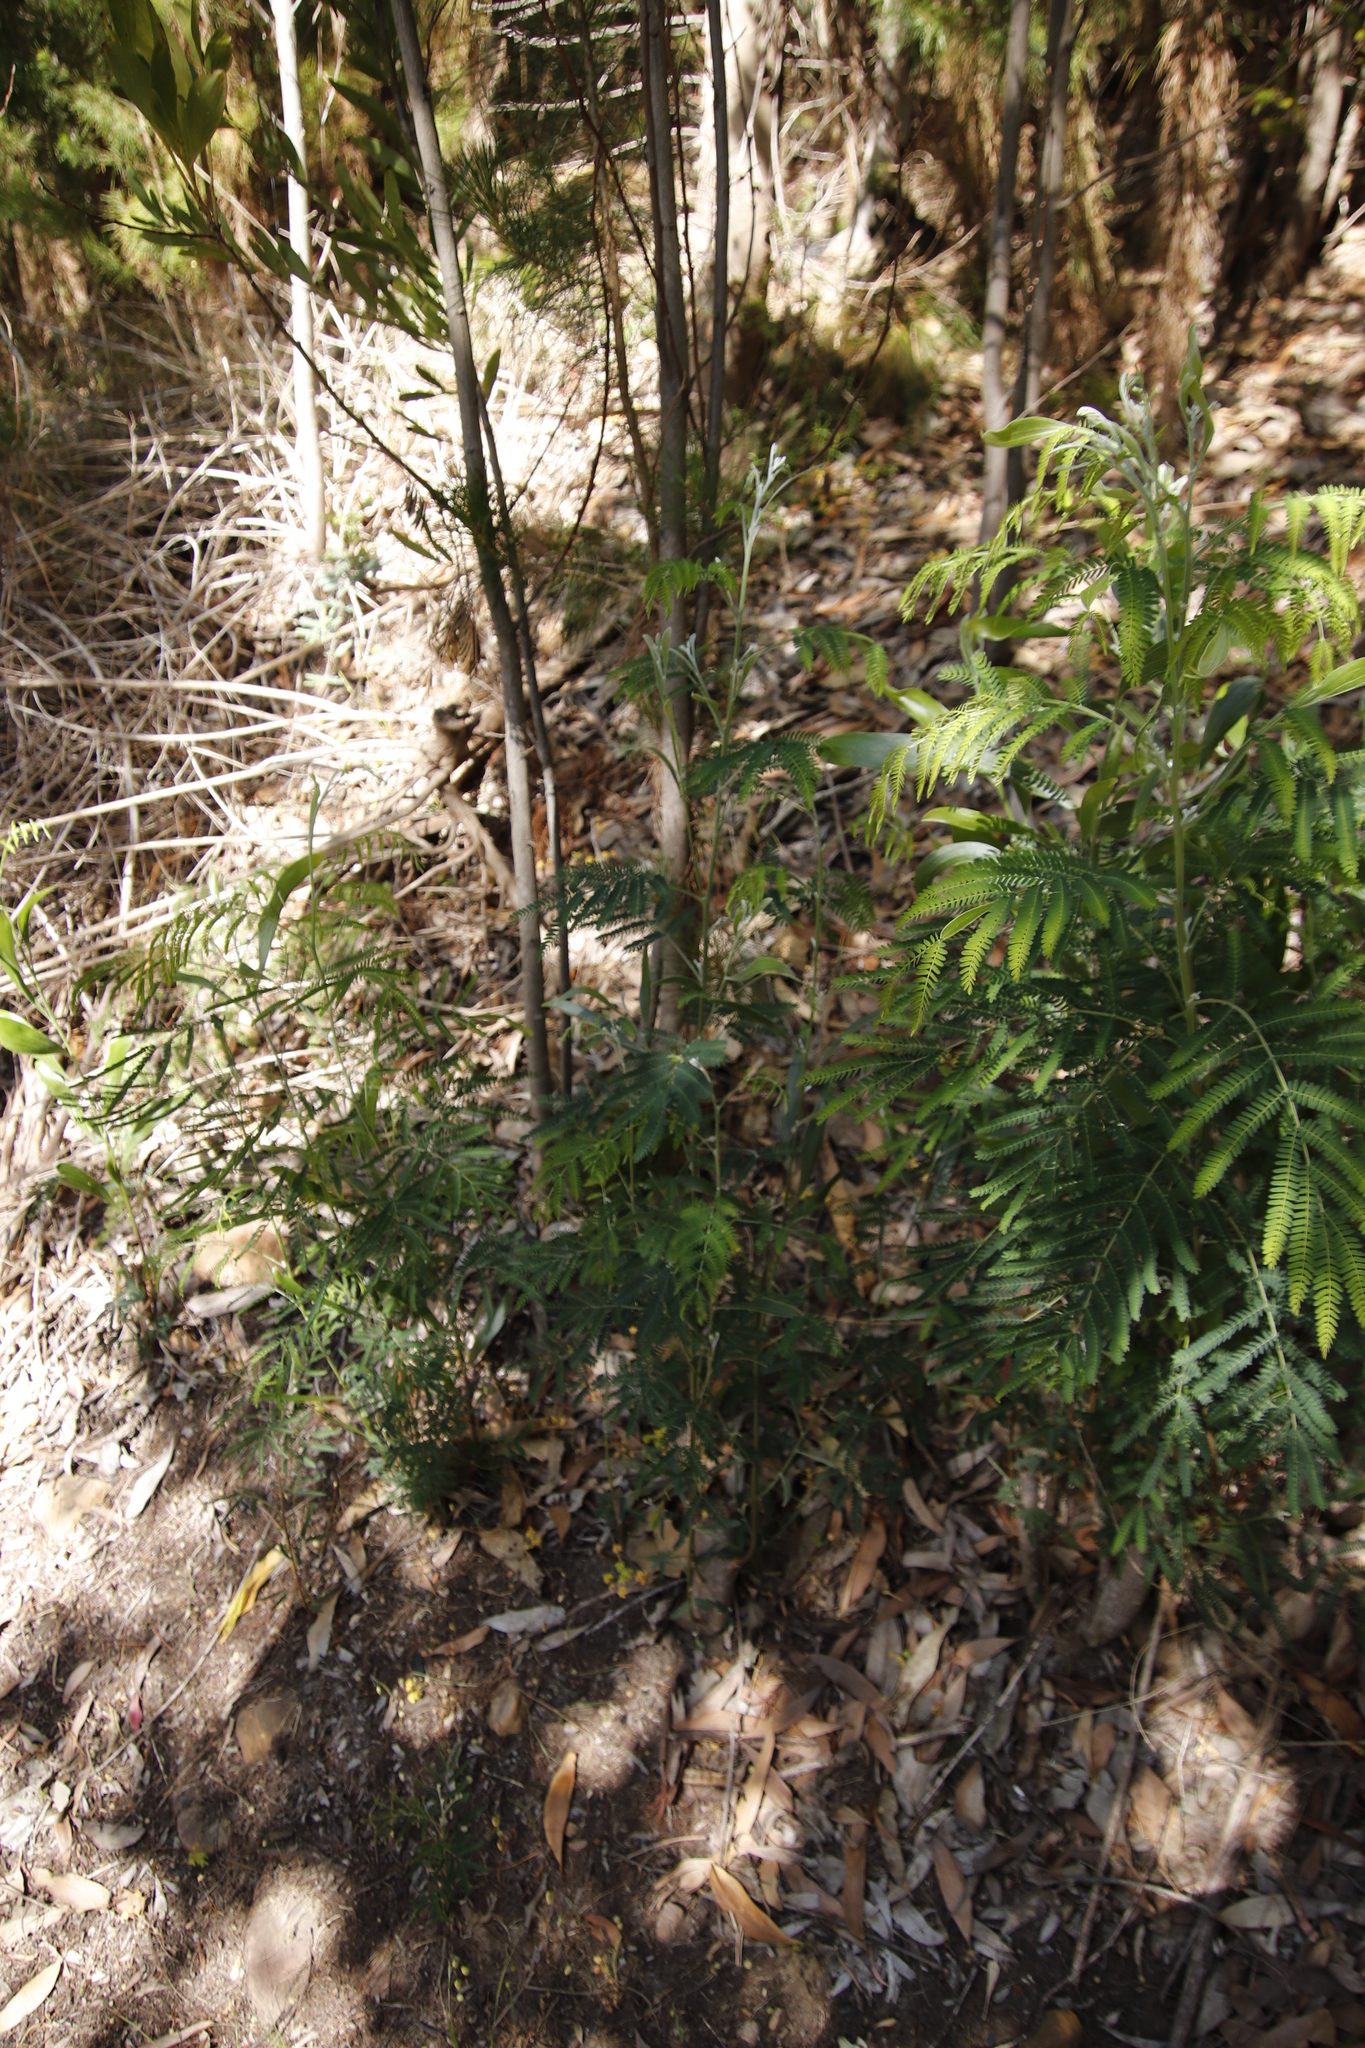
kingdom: Plantae
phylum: Tracheophyta
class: Magnoliopsida
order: Fabales
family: Fabaceae
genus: Acacia
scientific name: Acacia melanoxylon
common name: Blackwood
